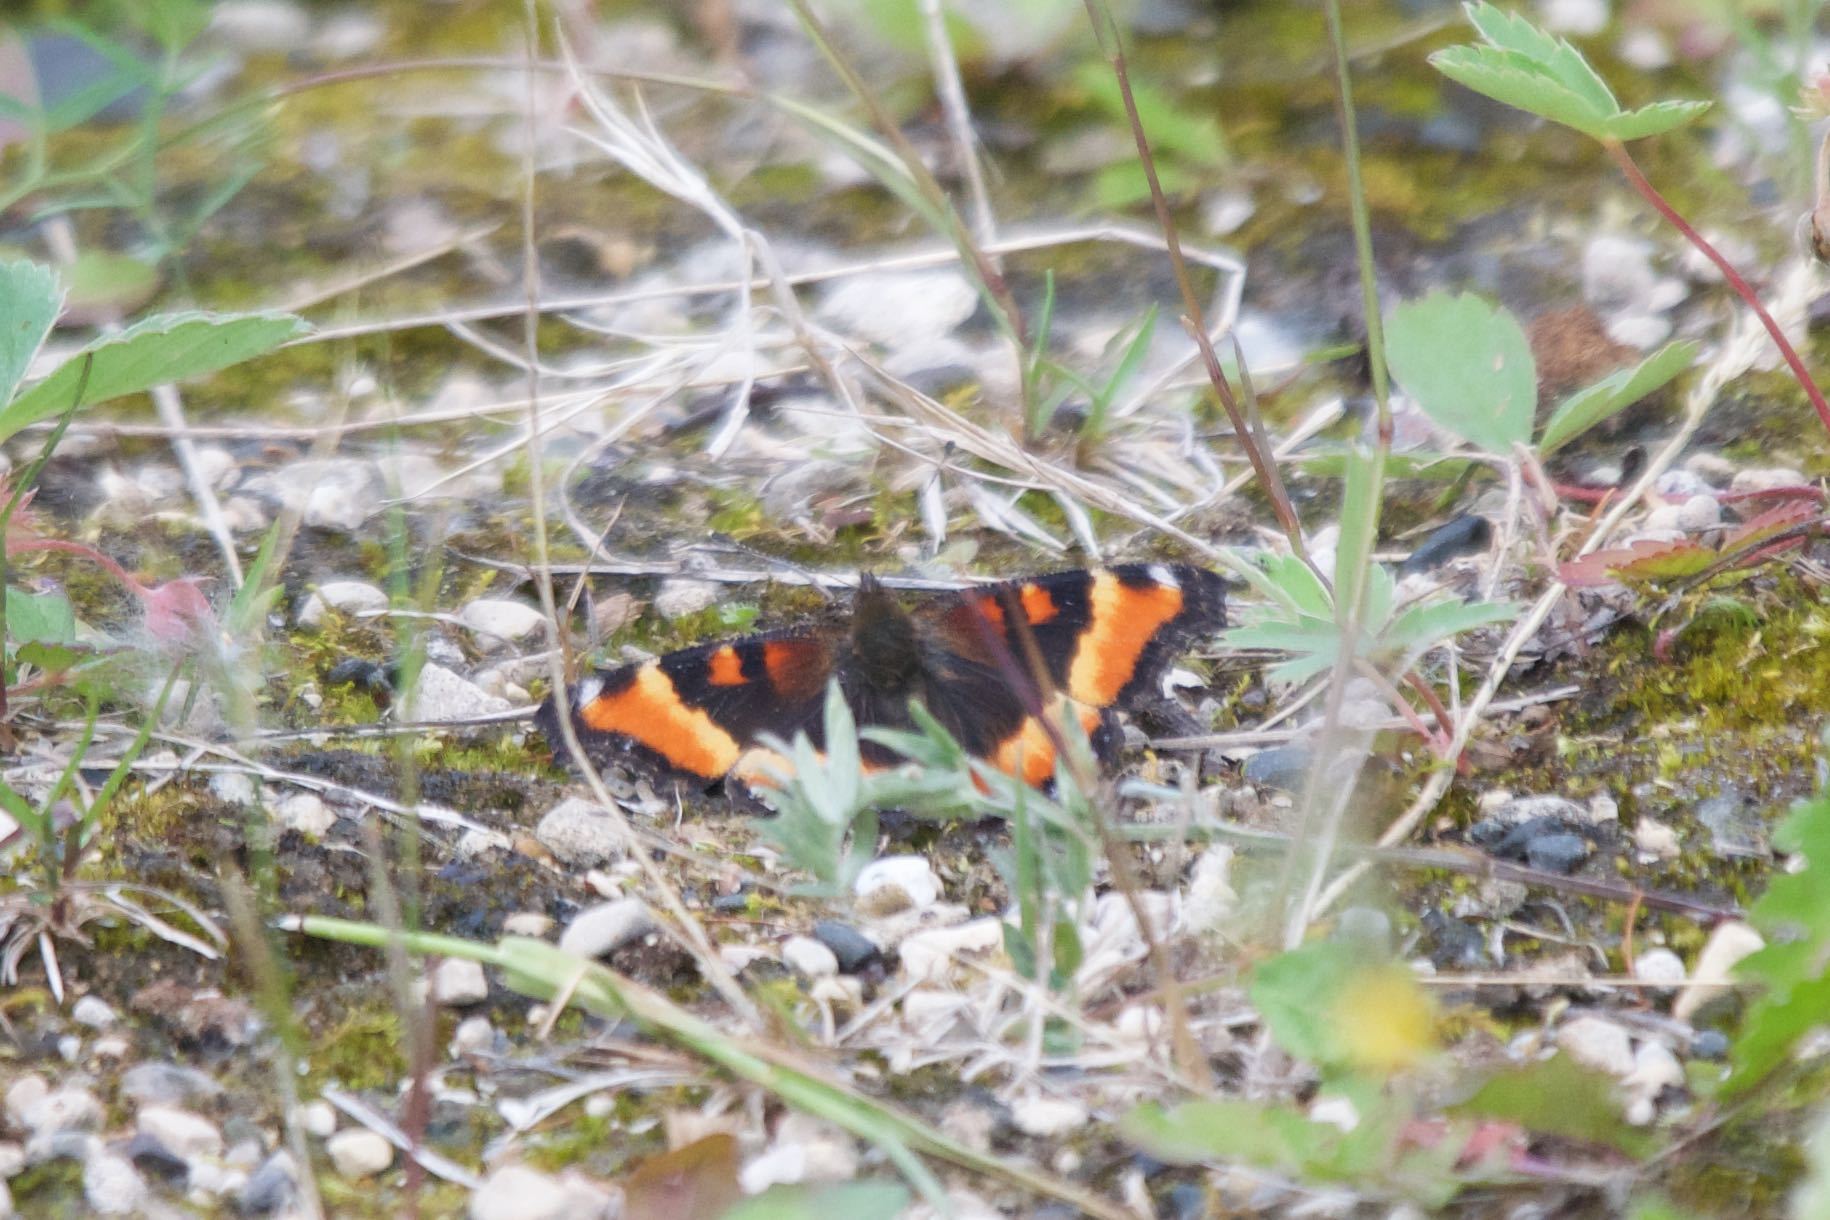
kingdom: Animalia
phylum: Arthropoda
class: Insecta
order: Lepidoptera
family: Nymphalidae
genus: Aglais
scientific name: Aglais milberti
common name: Milbert's tortoiseshell
